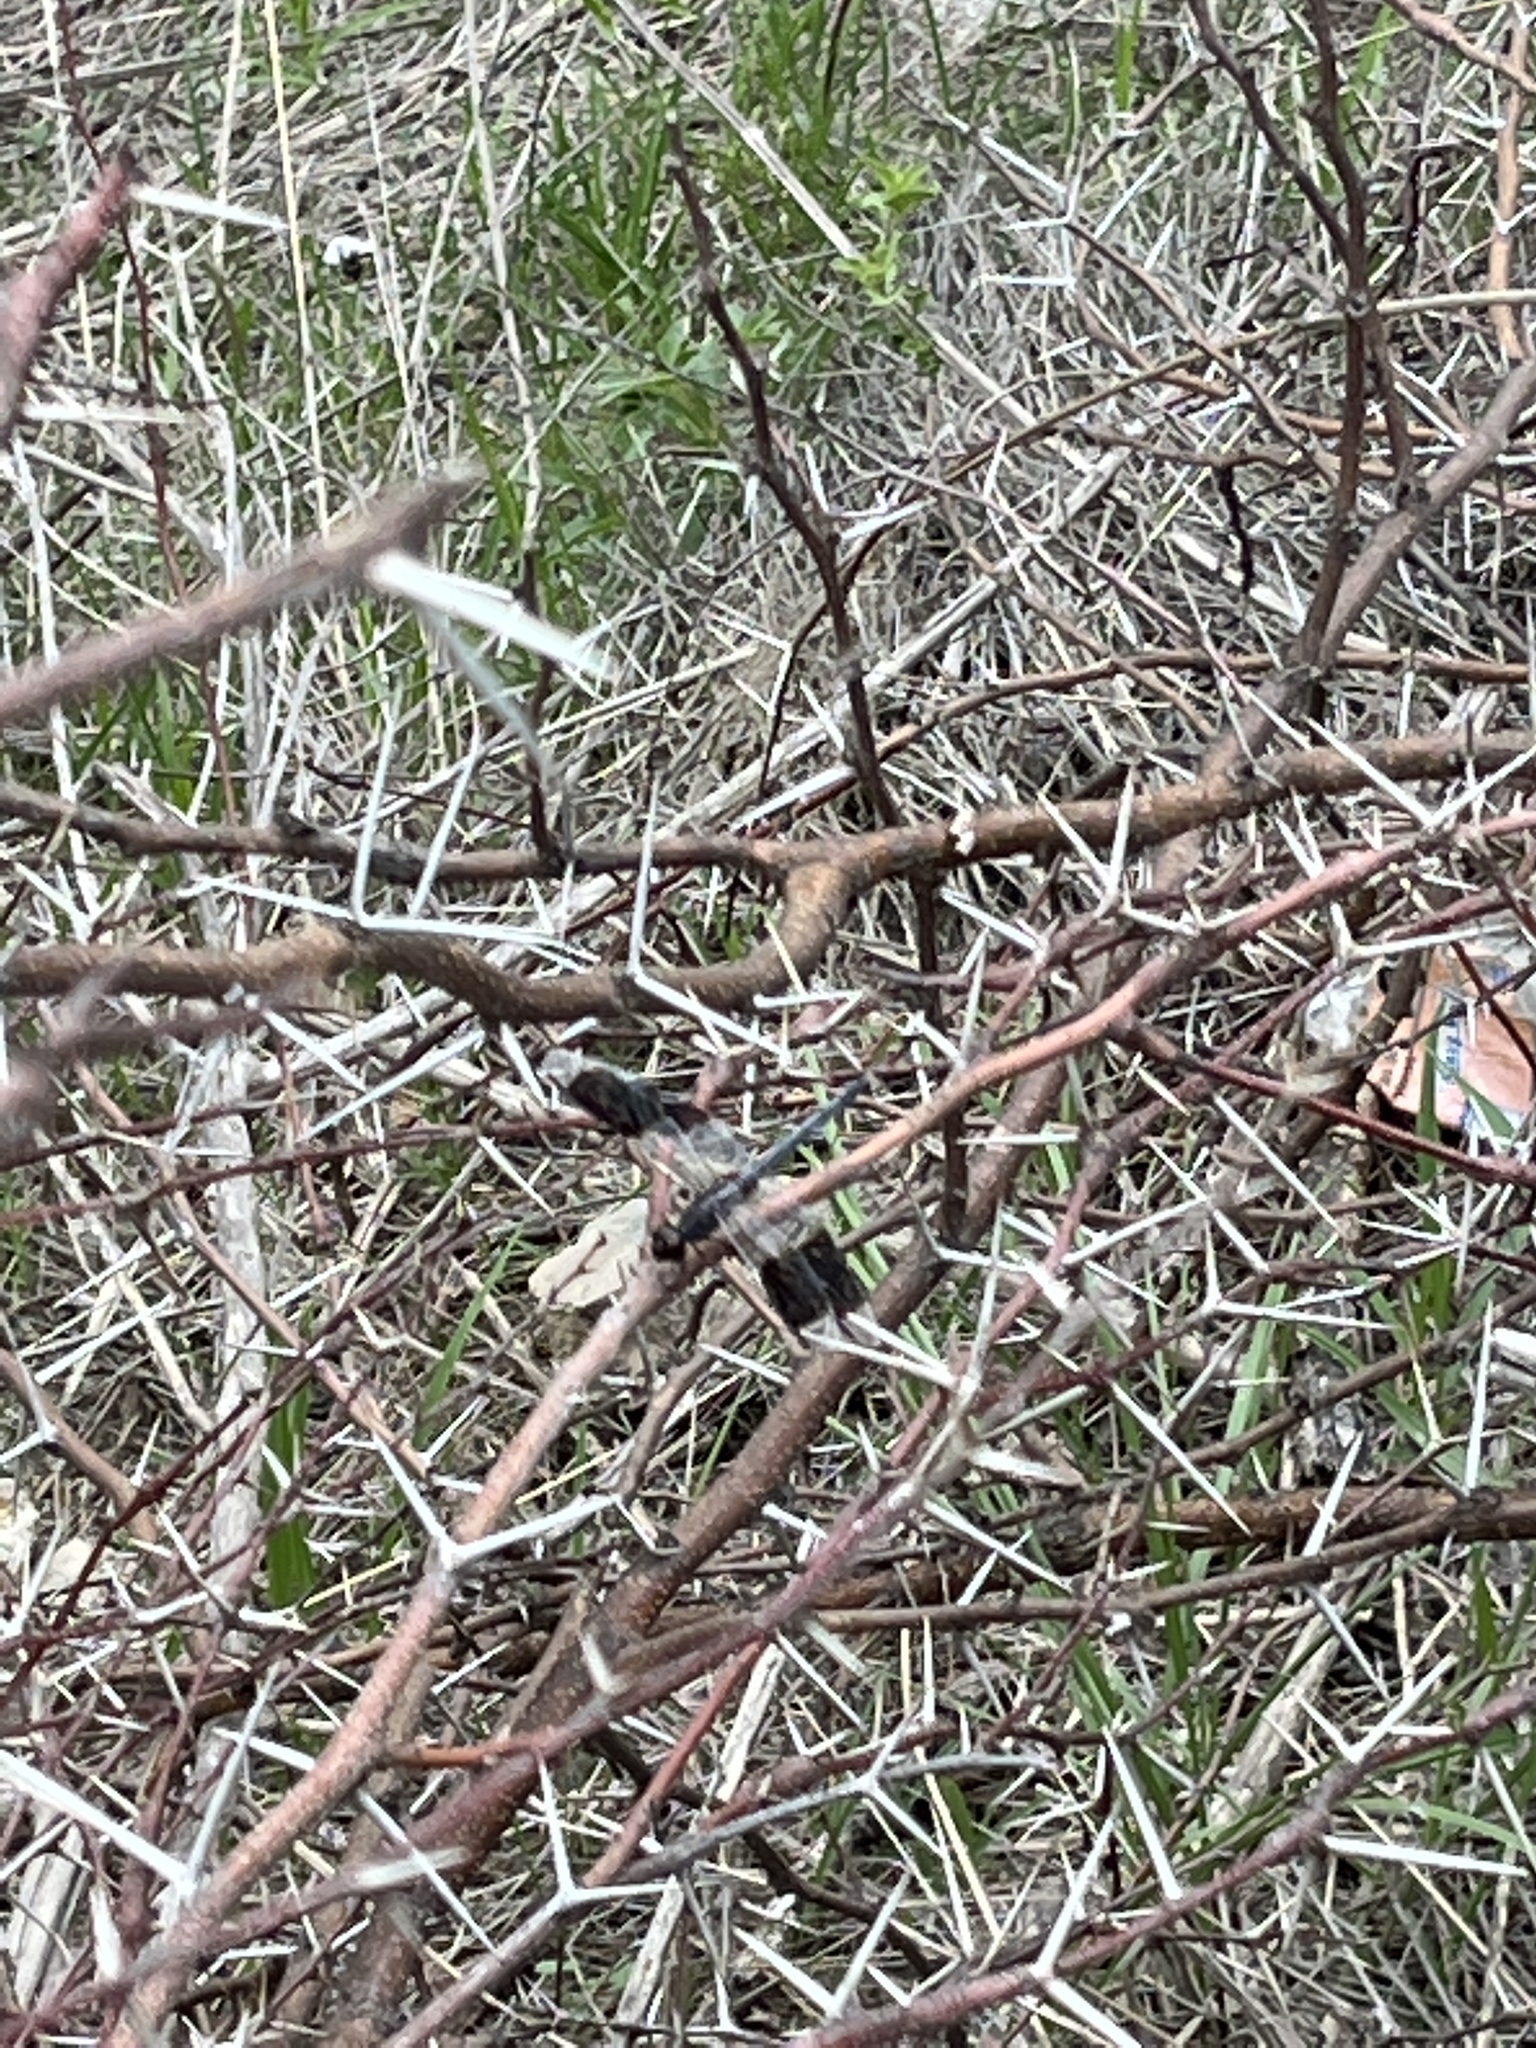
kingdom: Animalia
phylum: Arthropoda
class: Insecta
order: Odonata
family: Libellulidae
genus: Erythrodiplax
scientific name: Erythrodiplax umbrata
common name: Band-winged dragonlet
